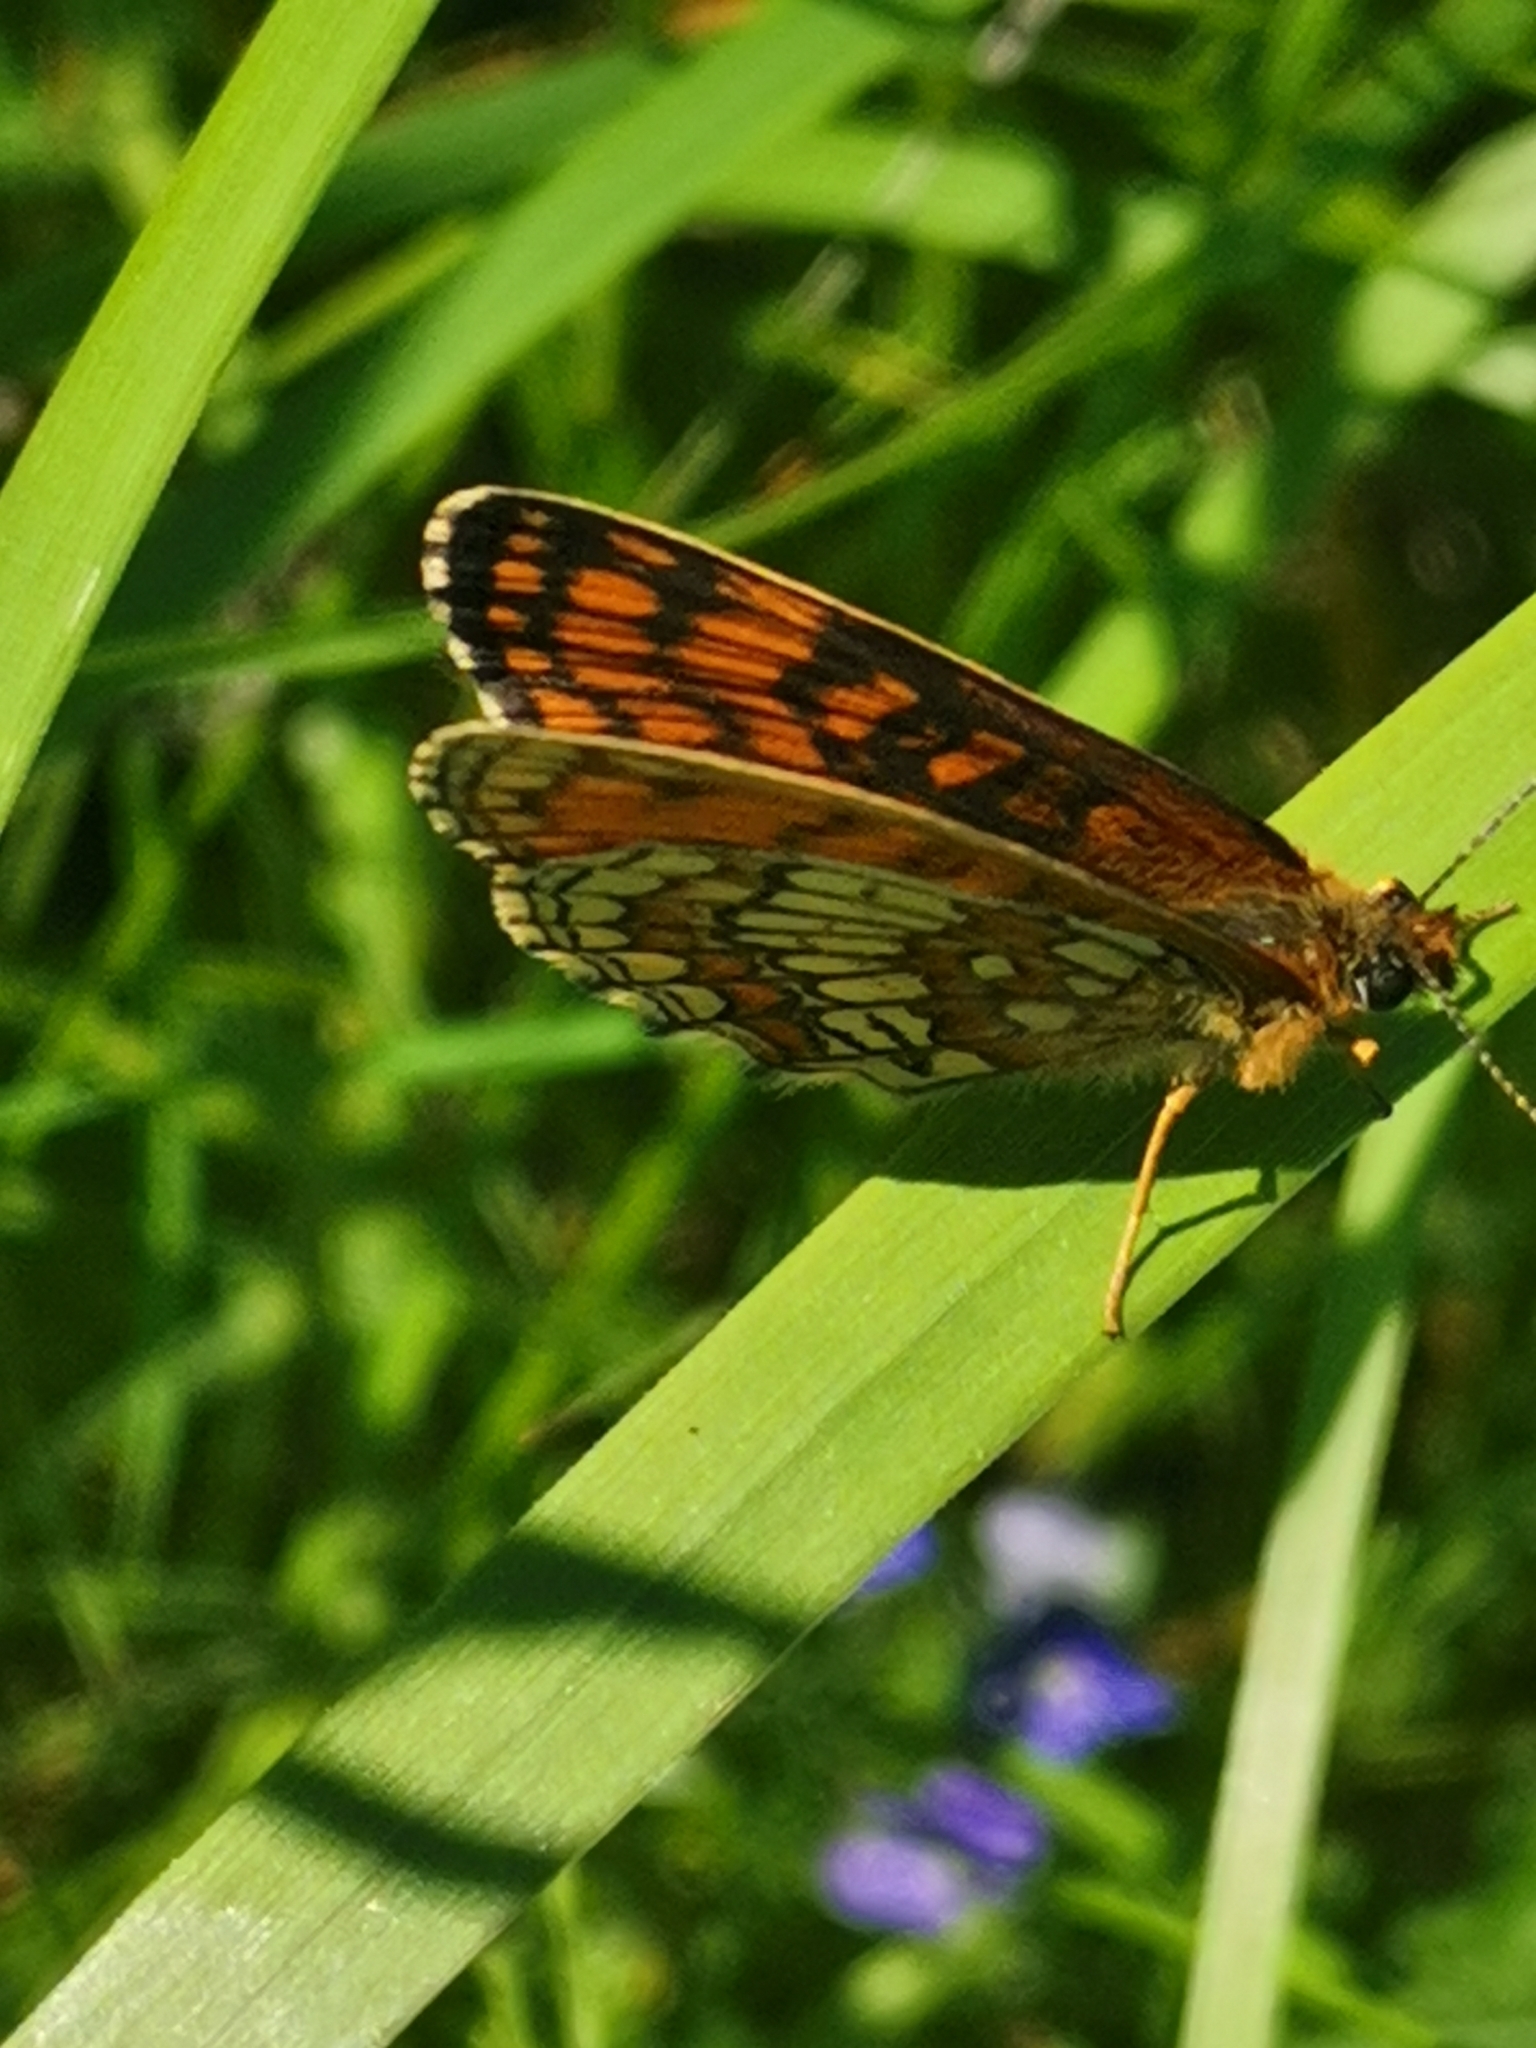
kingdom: Animalia
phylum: Arthropoda
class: Insecta
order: Lepidoptera
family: Nymphalidae
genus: Melitaea
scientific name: Melitaea athalia
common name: Heath fritillary
